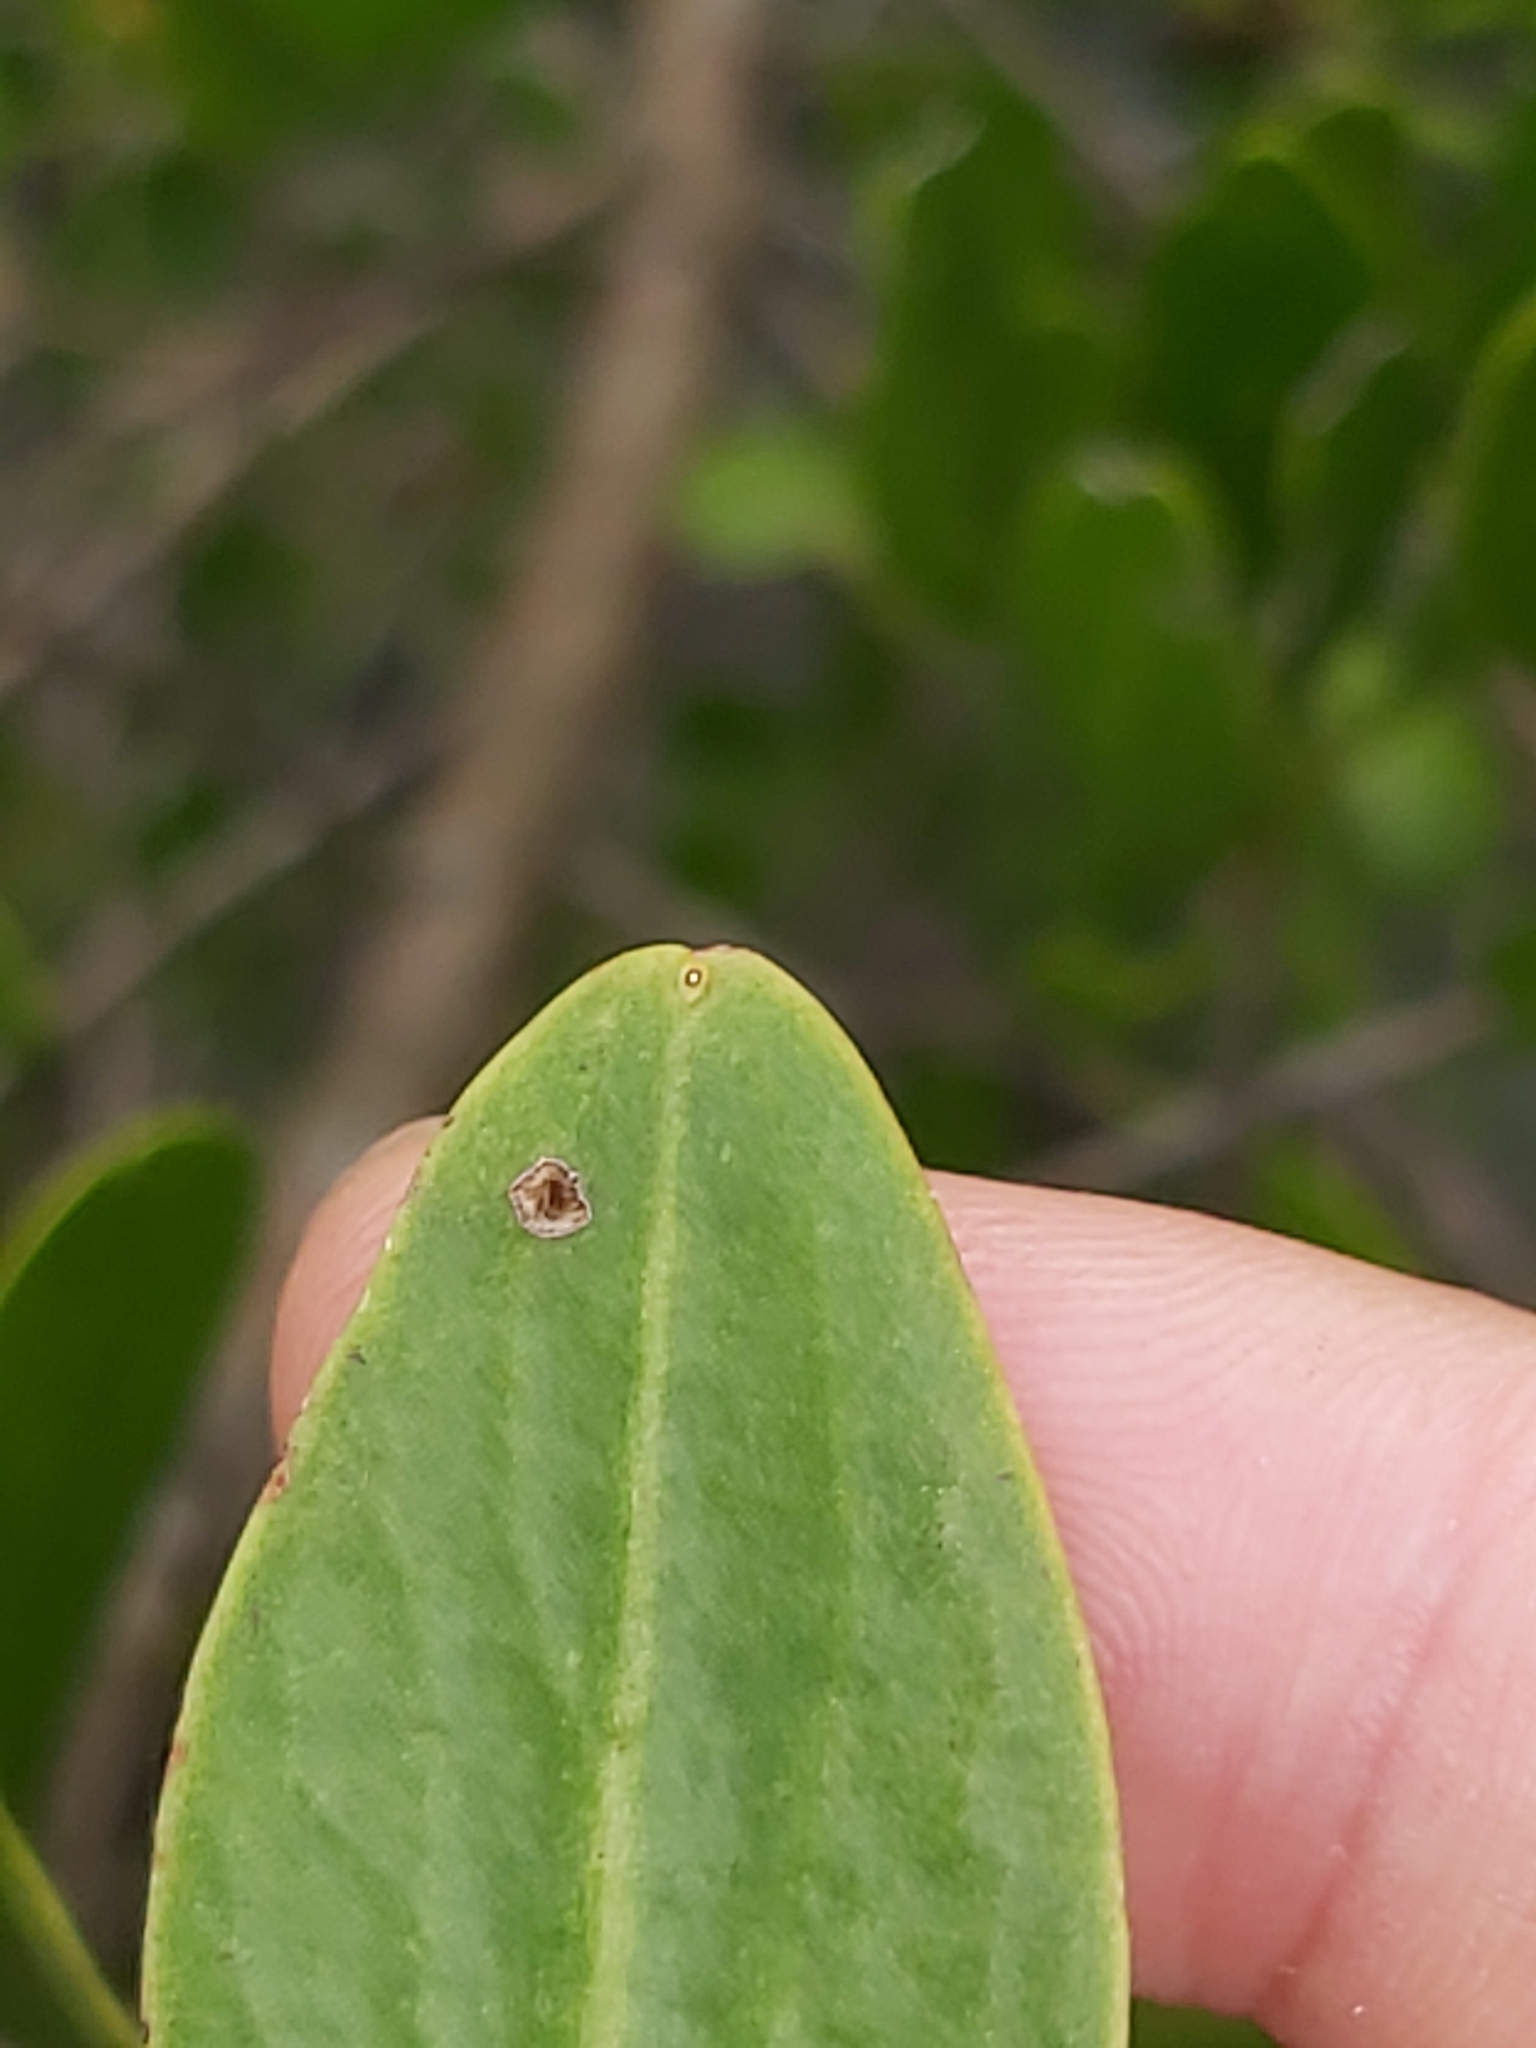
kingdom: Plantae
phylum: Tracheophyta
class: Magnoliopsida
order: Myrtales
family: Combretaceae
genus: Lumnitzera
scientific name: Lumnitzera racemosa
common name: White-flowered black mangrove
